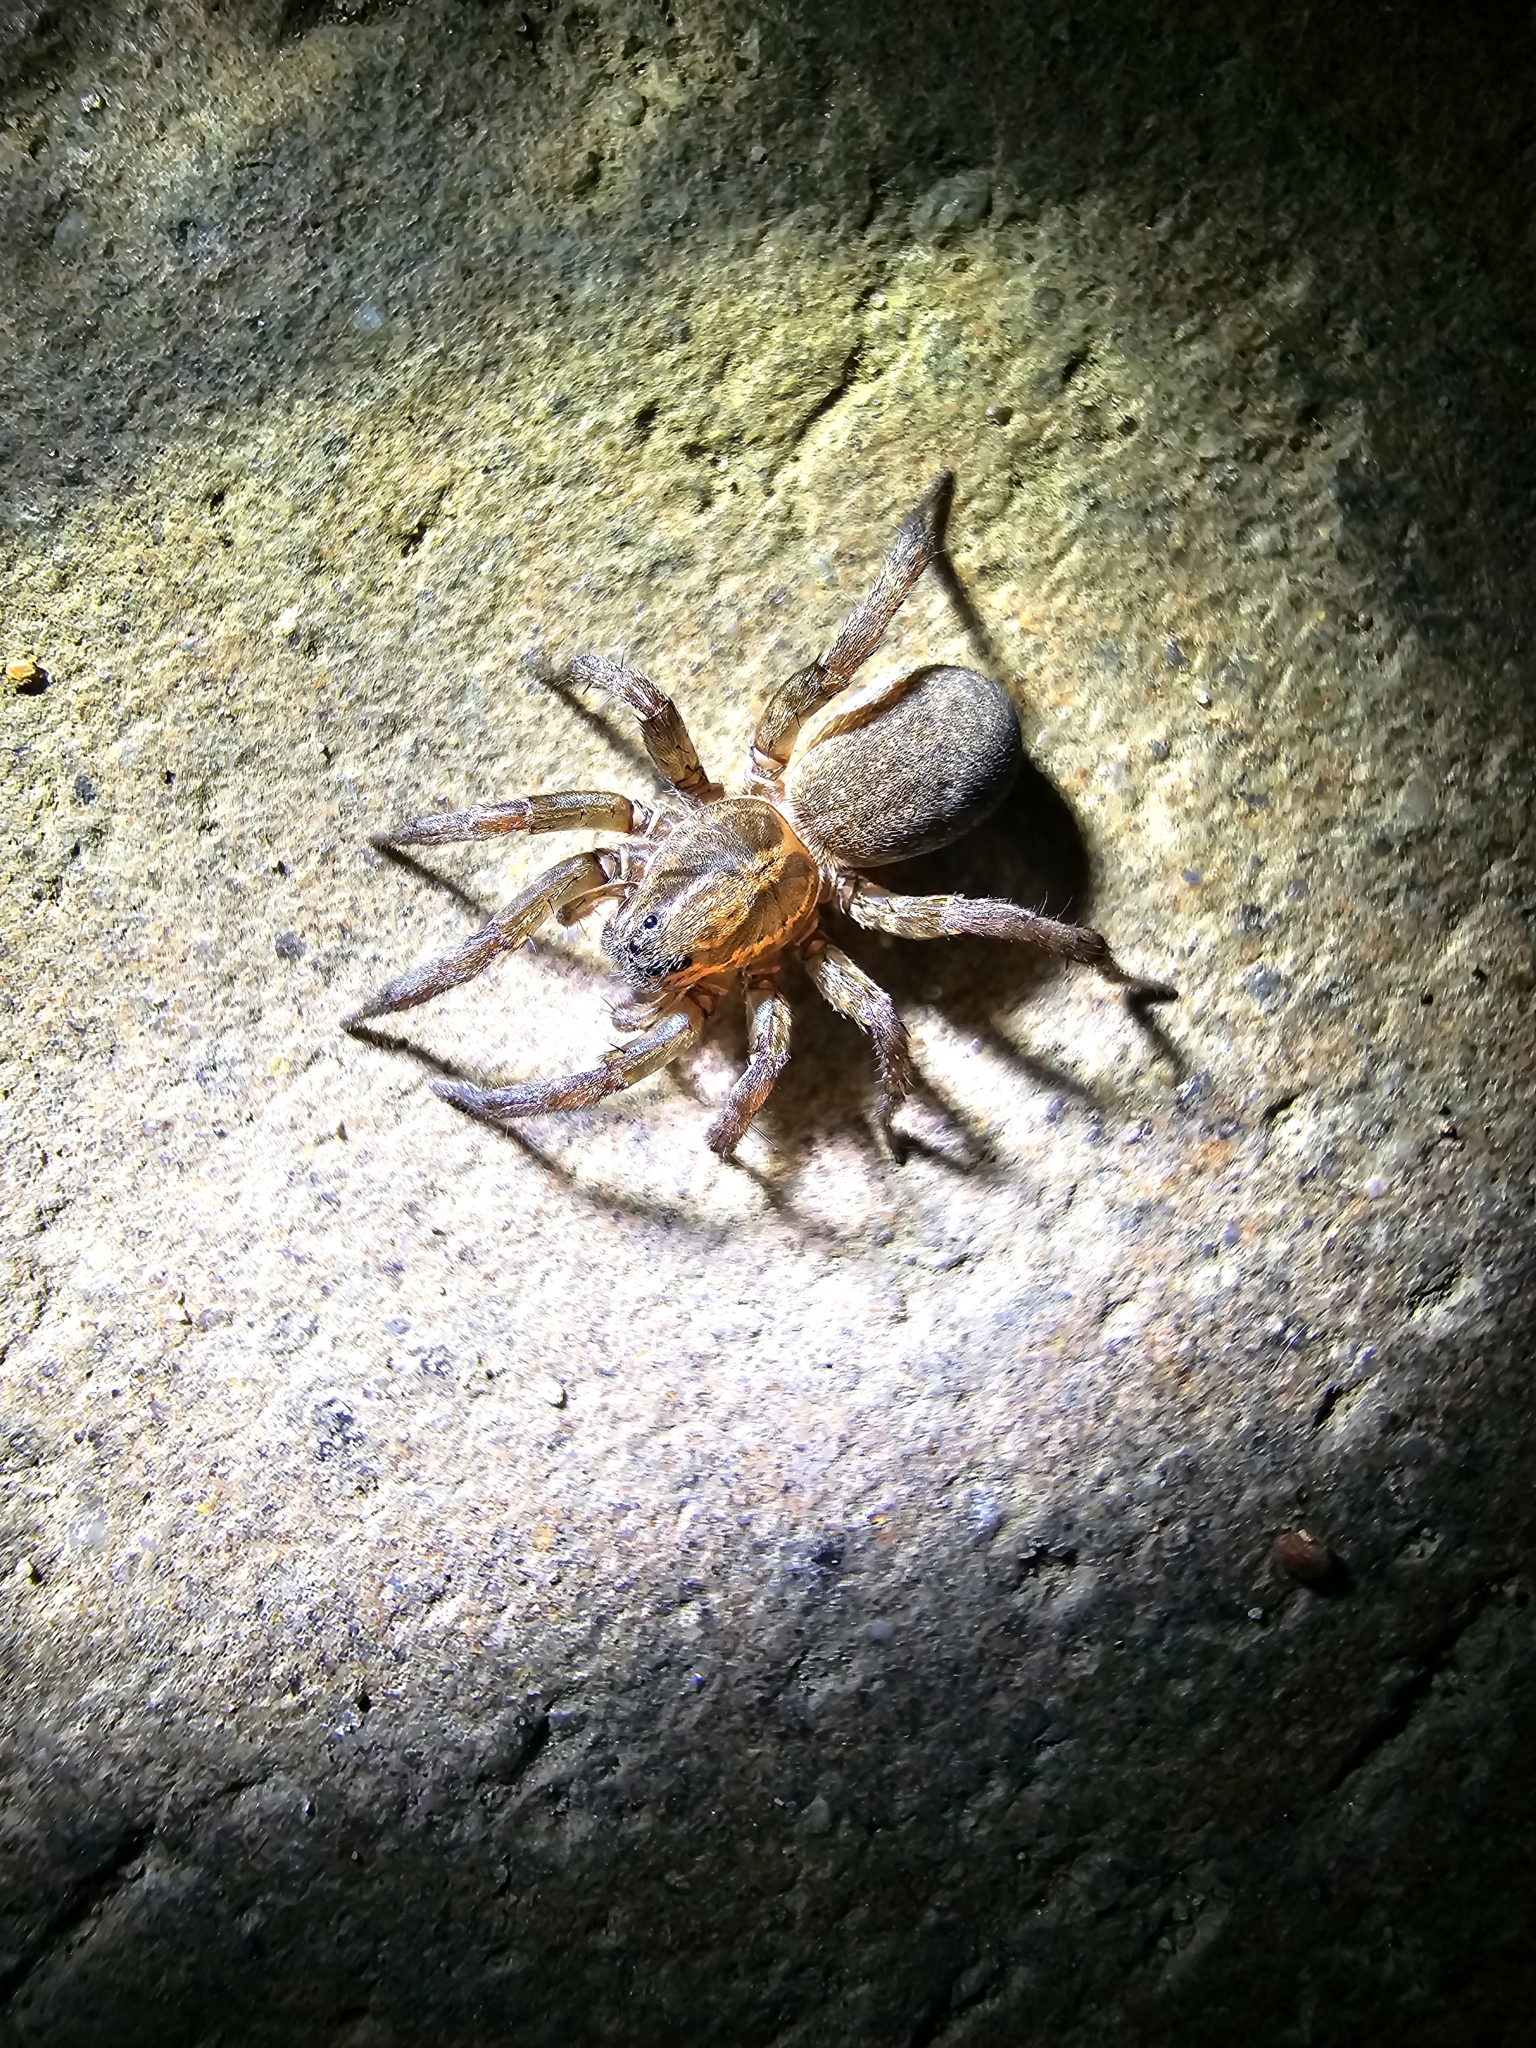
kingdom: Animalia
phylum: Arthropoda
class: Arachnida
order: Araneae
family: Lycosidae
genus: Trochosa
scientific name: Trochosa
